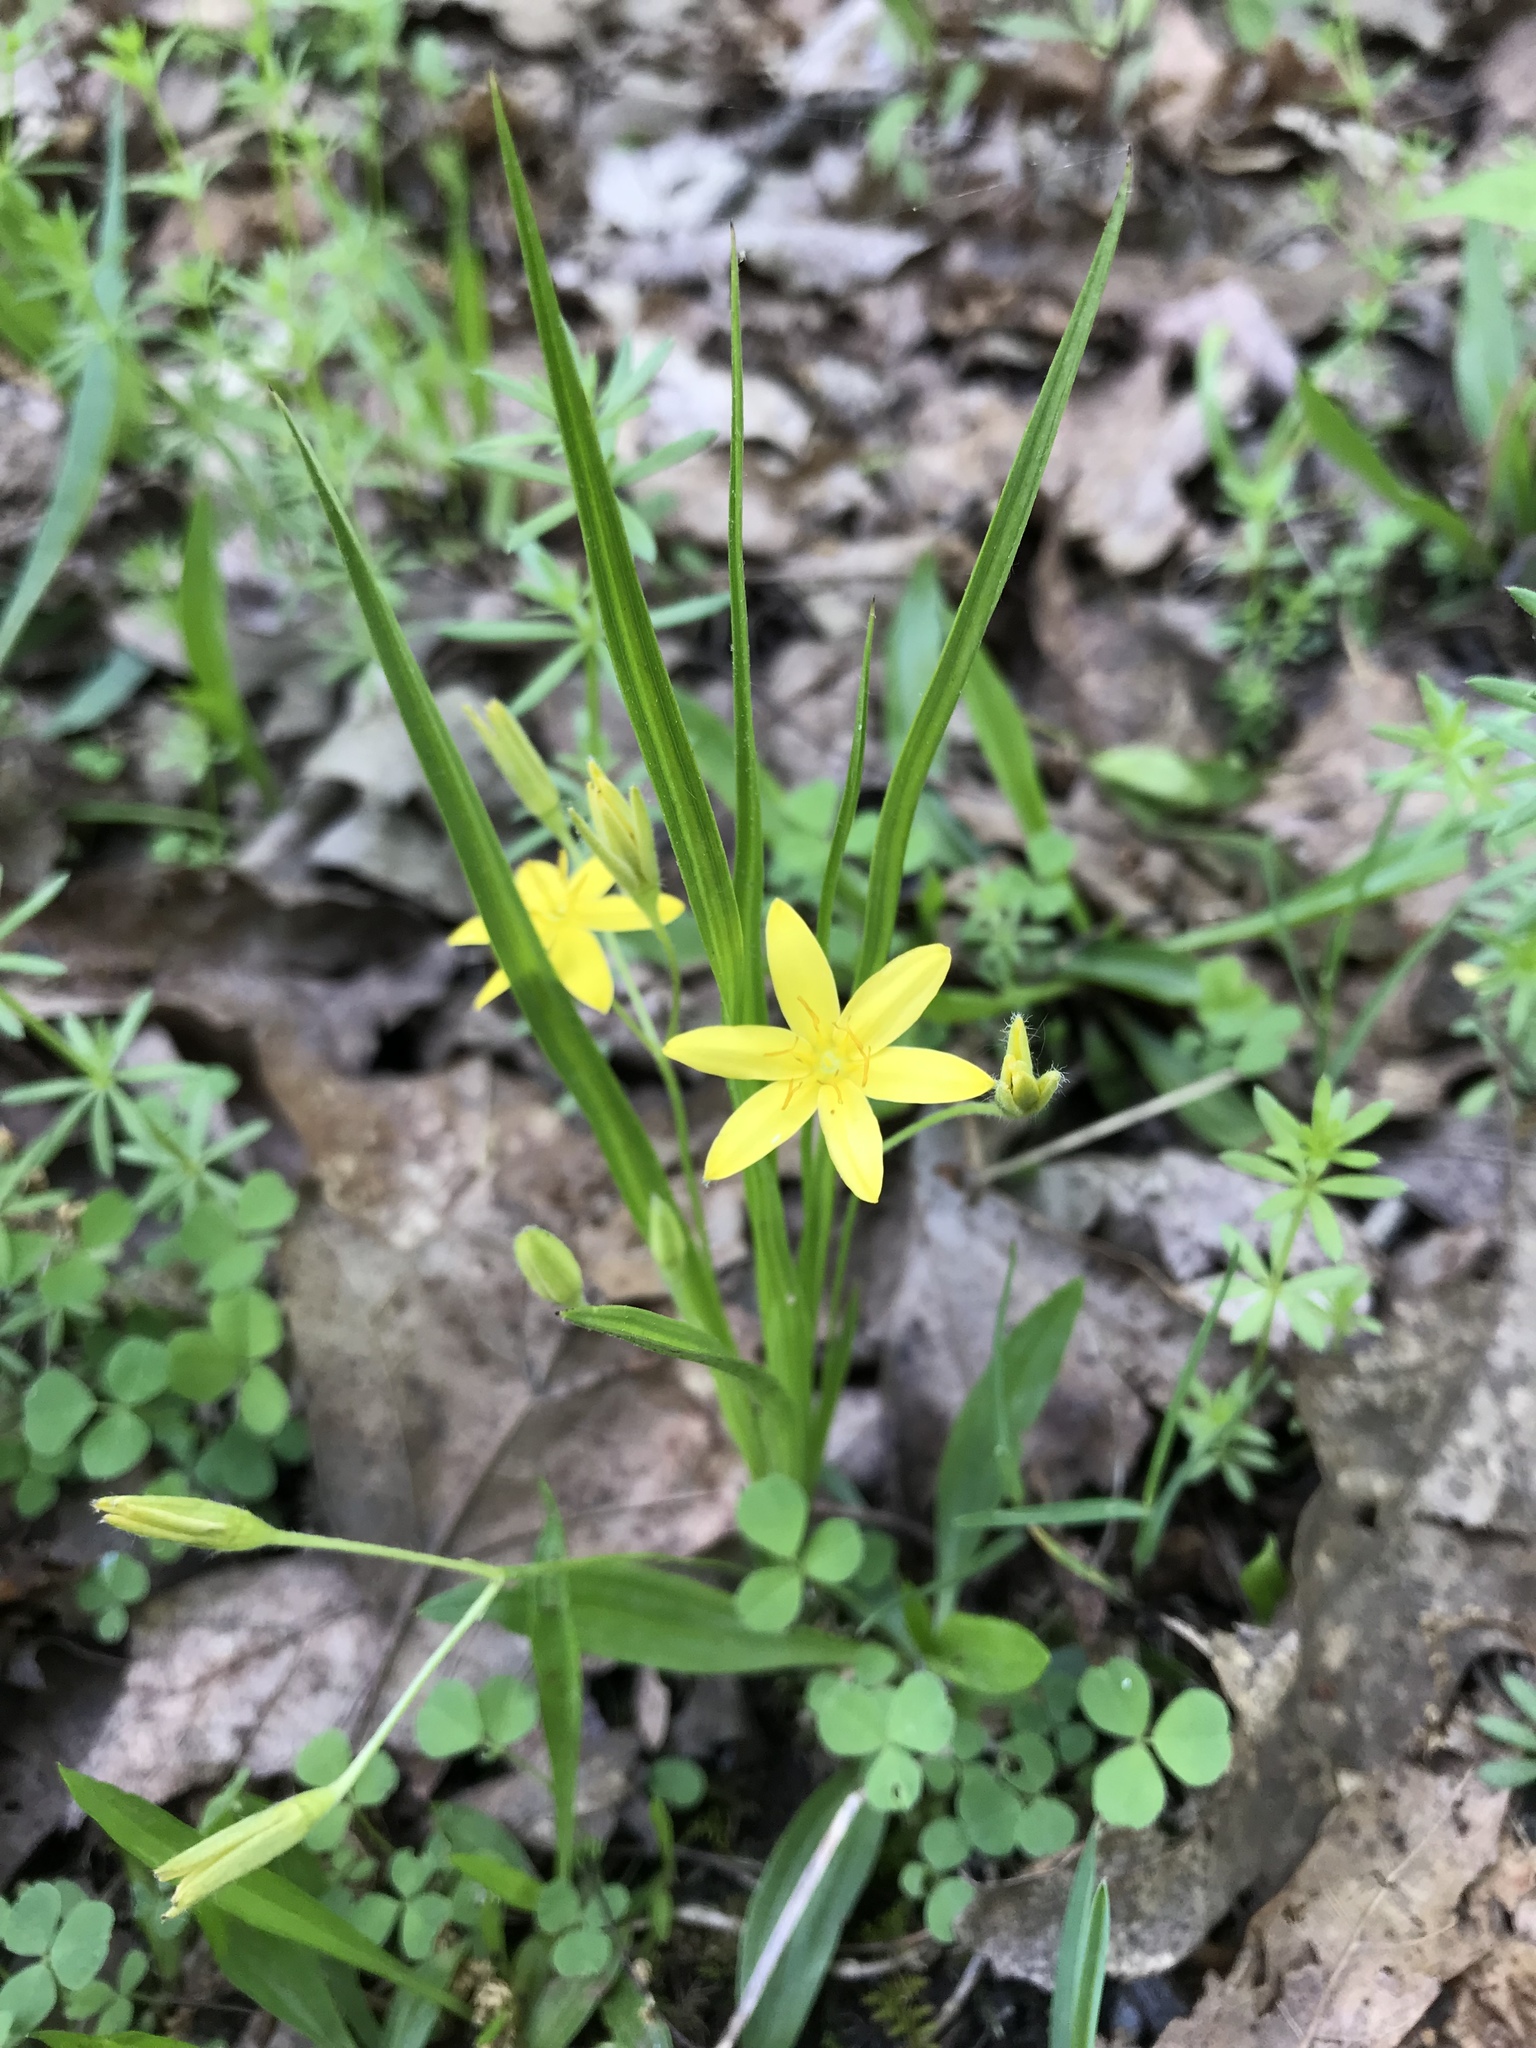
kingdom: Plantae
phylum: Tracheophyta
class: Liliopsida
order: Asparagales
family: Hypoxidaceae
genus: Hypoxis
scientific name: Hypoxis hirsuta
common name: Common goldstar
